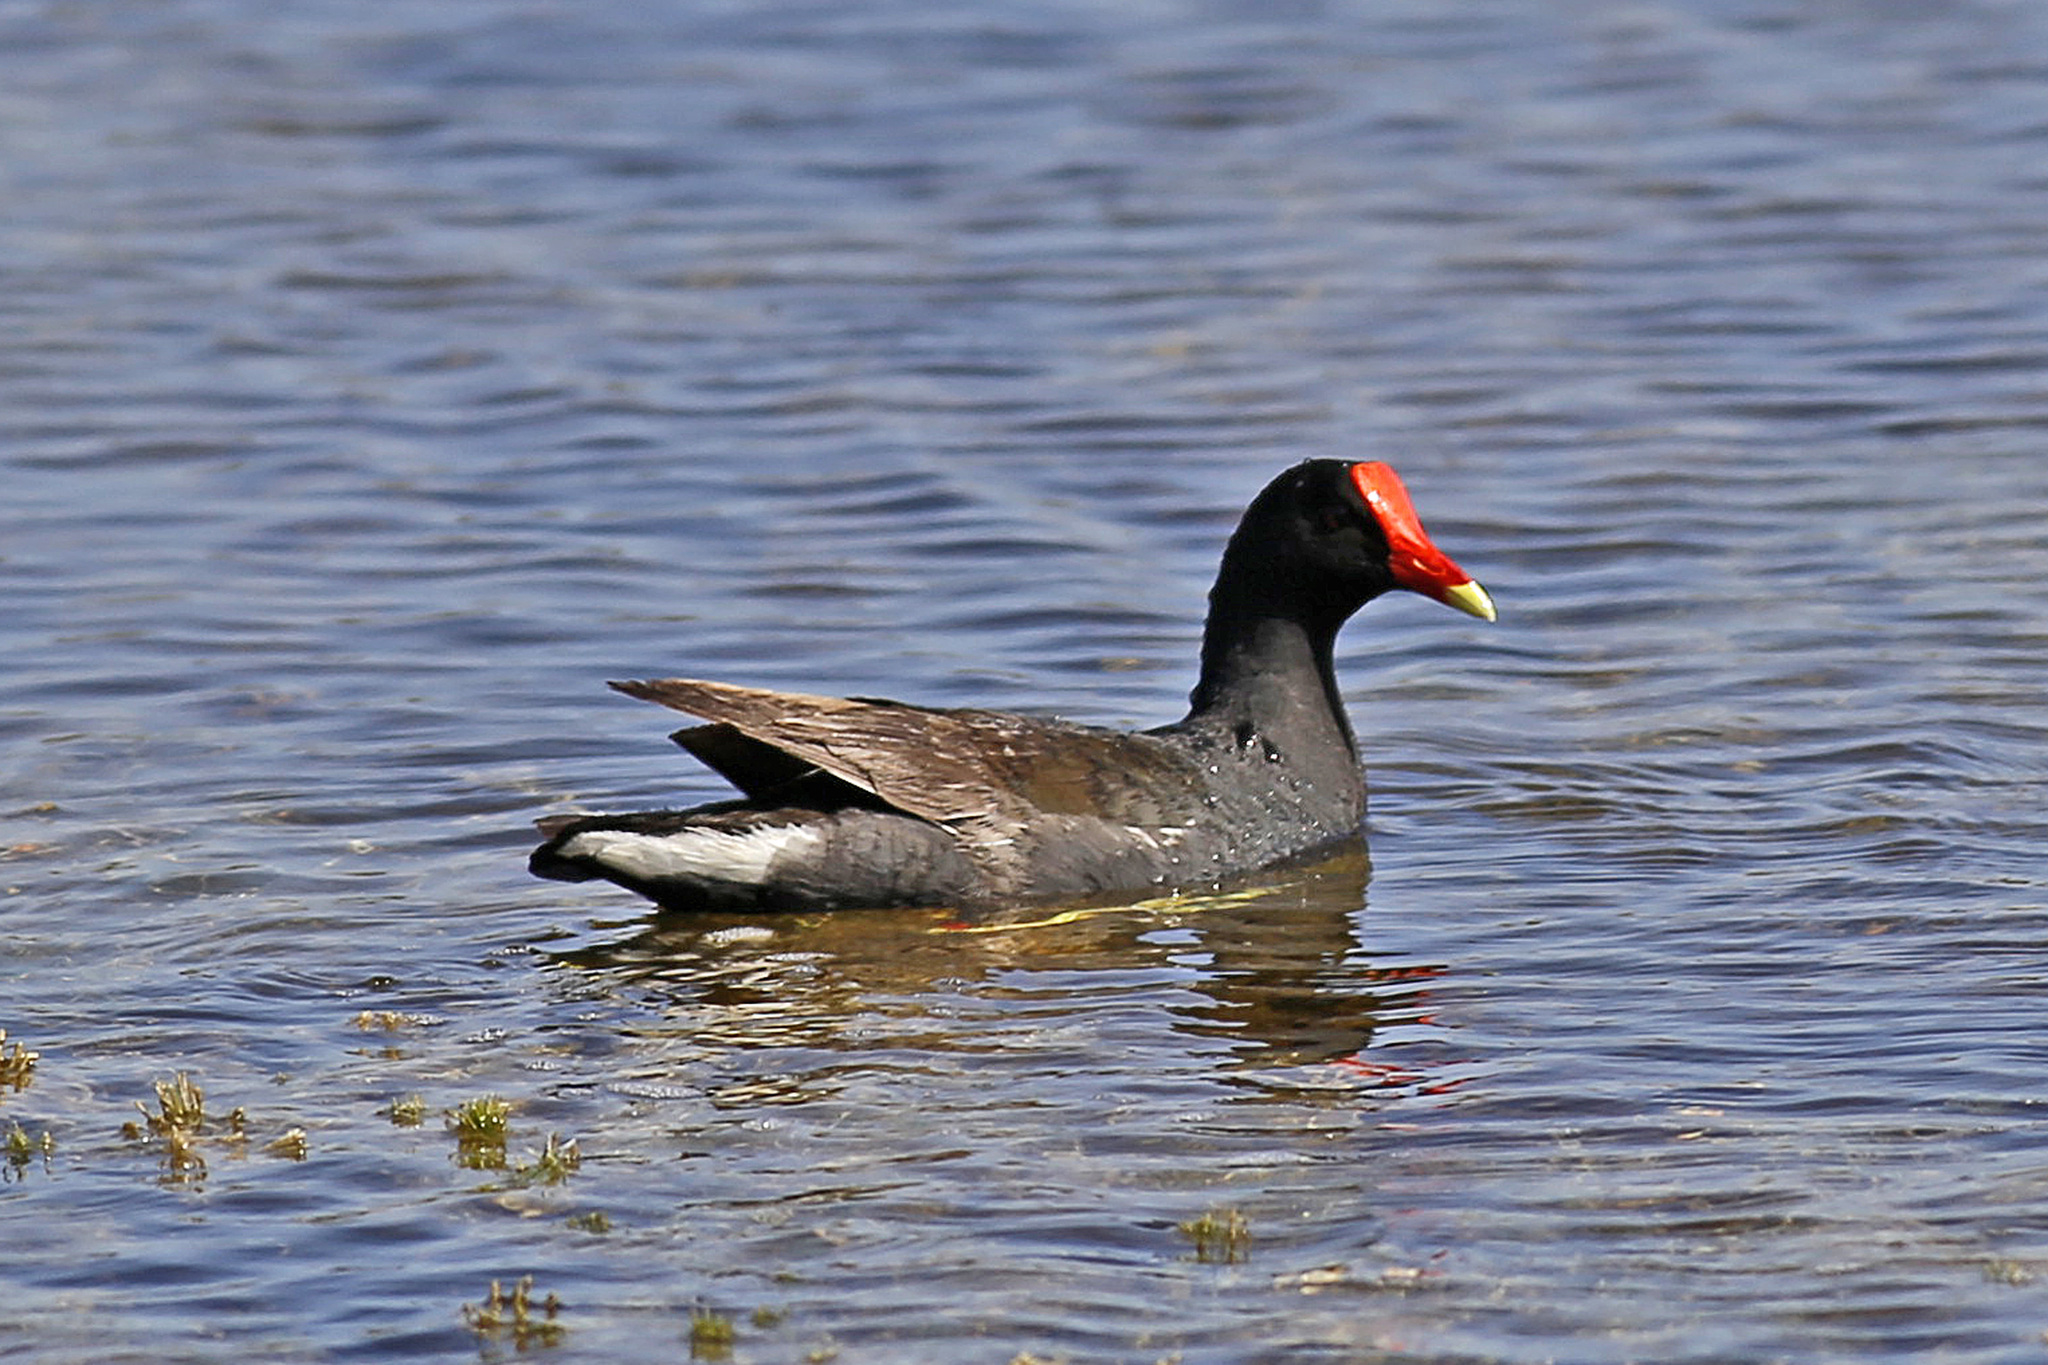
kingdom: Animalia
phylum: Chordata
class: Aves
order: Gruiformes
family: Rallidae
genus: Gallinula
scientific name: Gallinula chloropus
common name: Common moorhen
